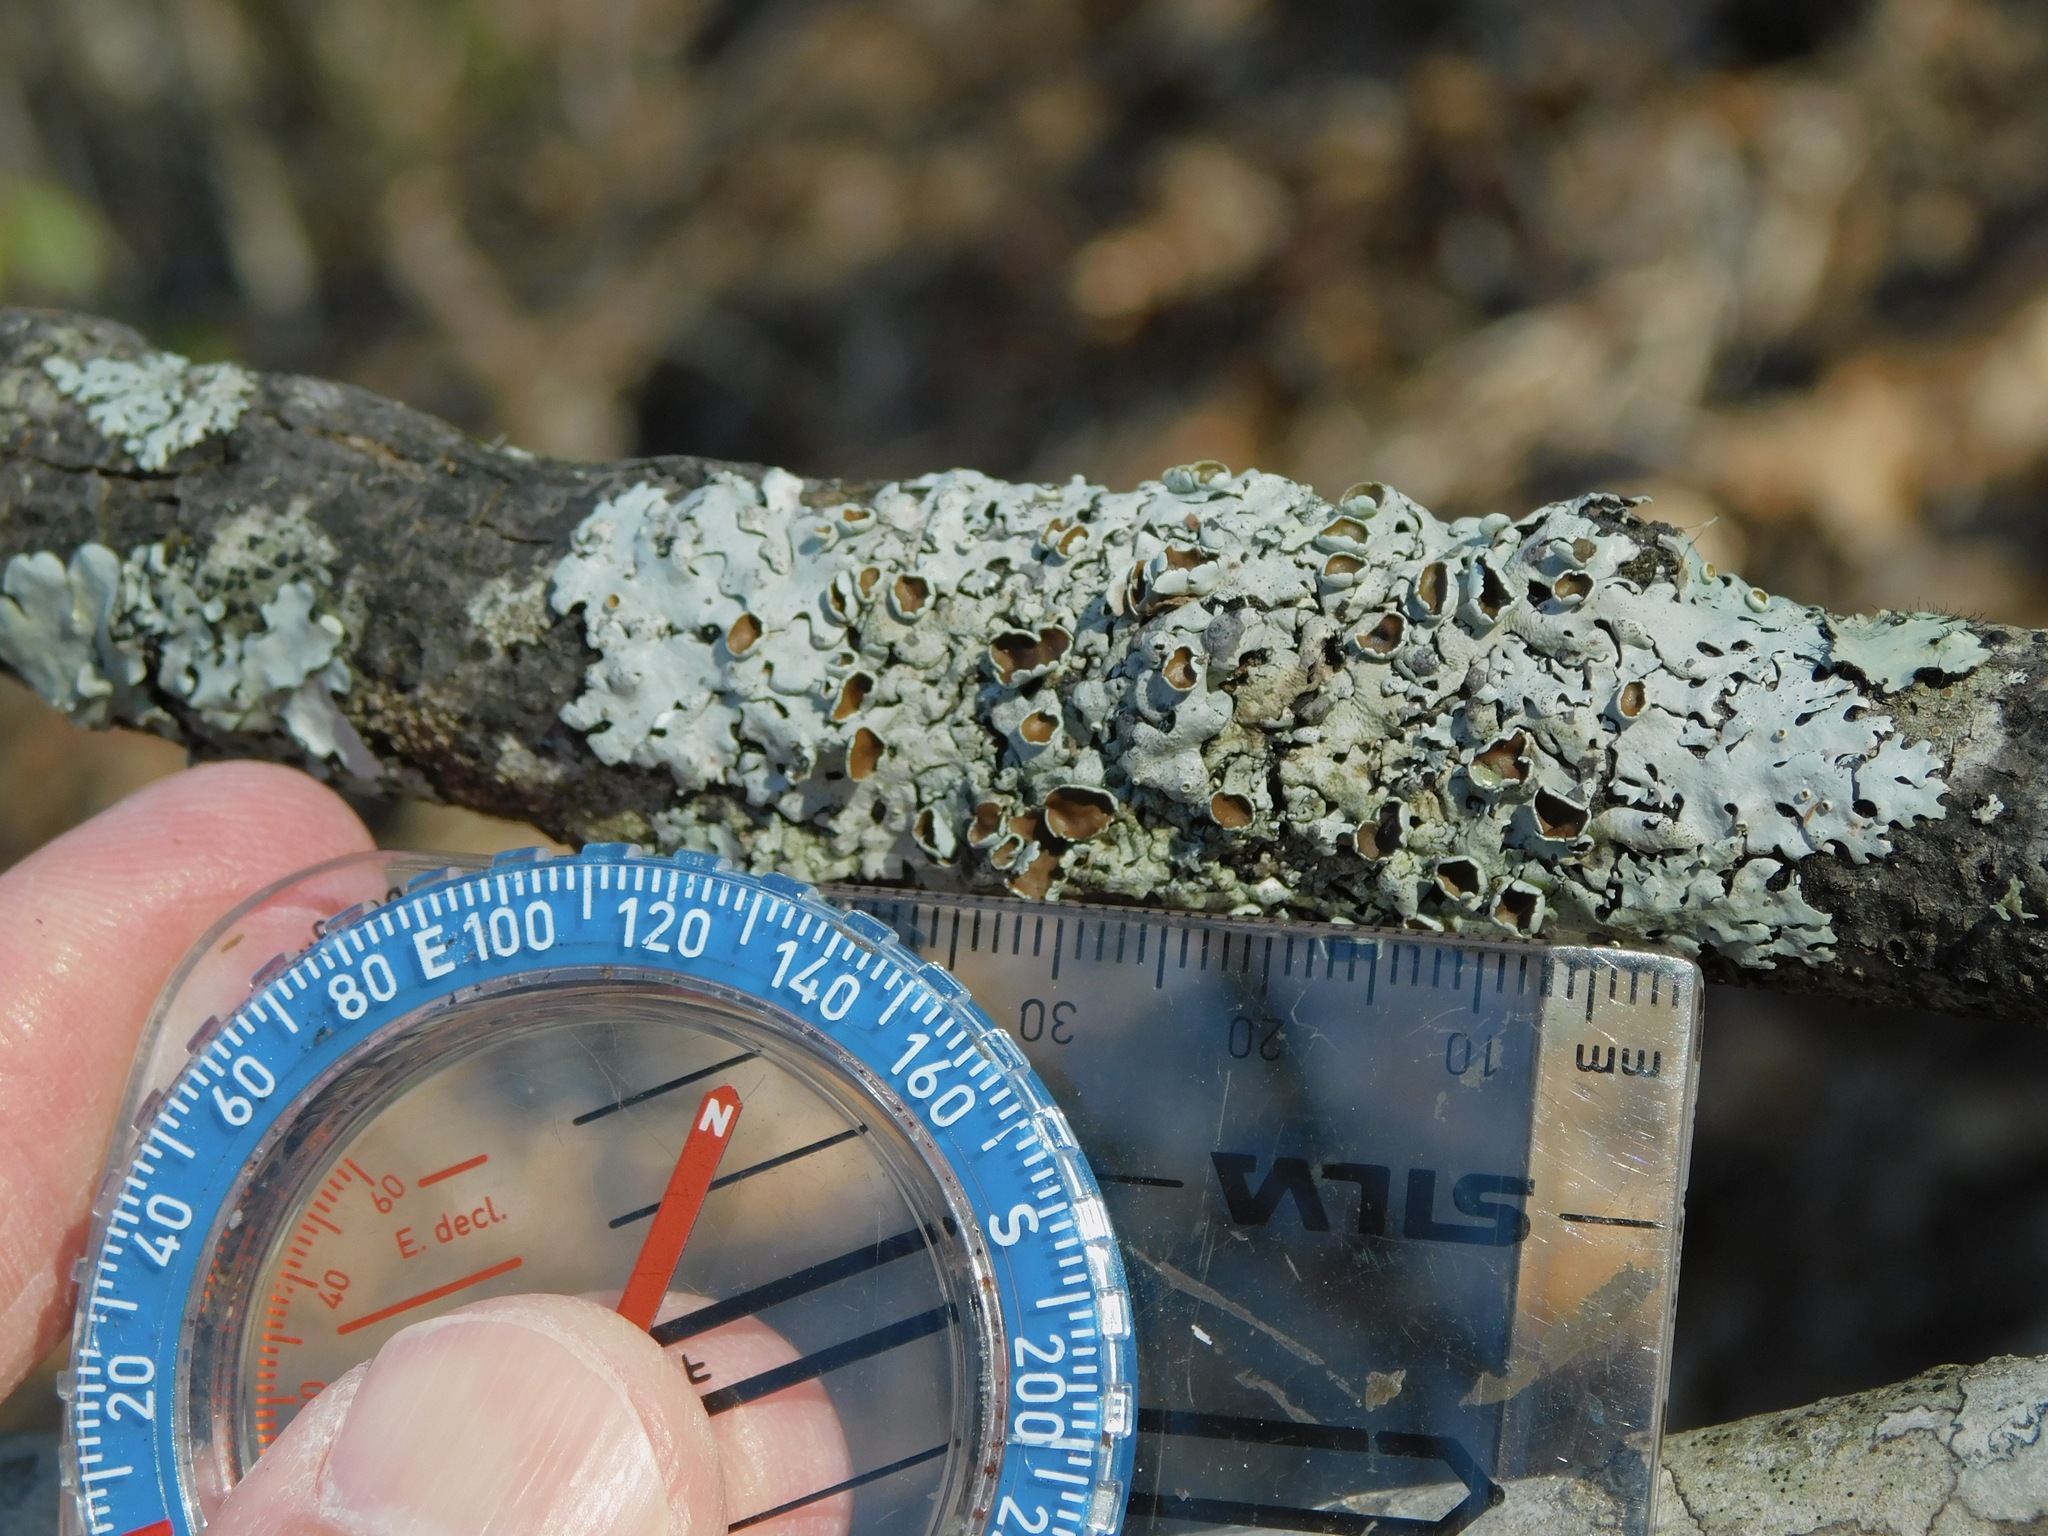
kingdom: Fungi
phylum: Ascomycota
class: Lecanoromycetes
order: Lecanorales
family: Parmeliaceae
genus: Myelochroa
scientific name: Myelochroa galbina
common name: Smooth axil-bristle lichen
